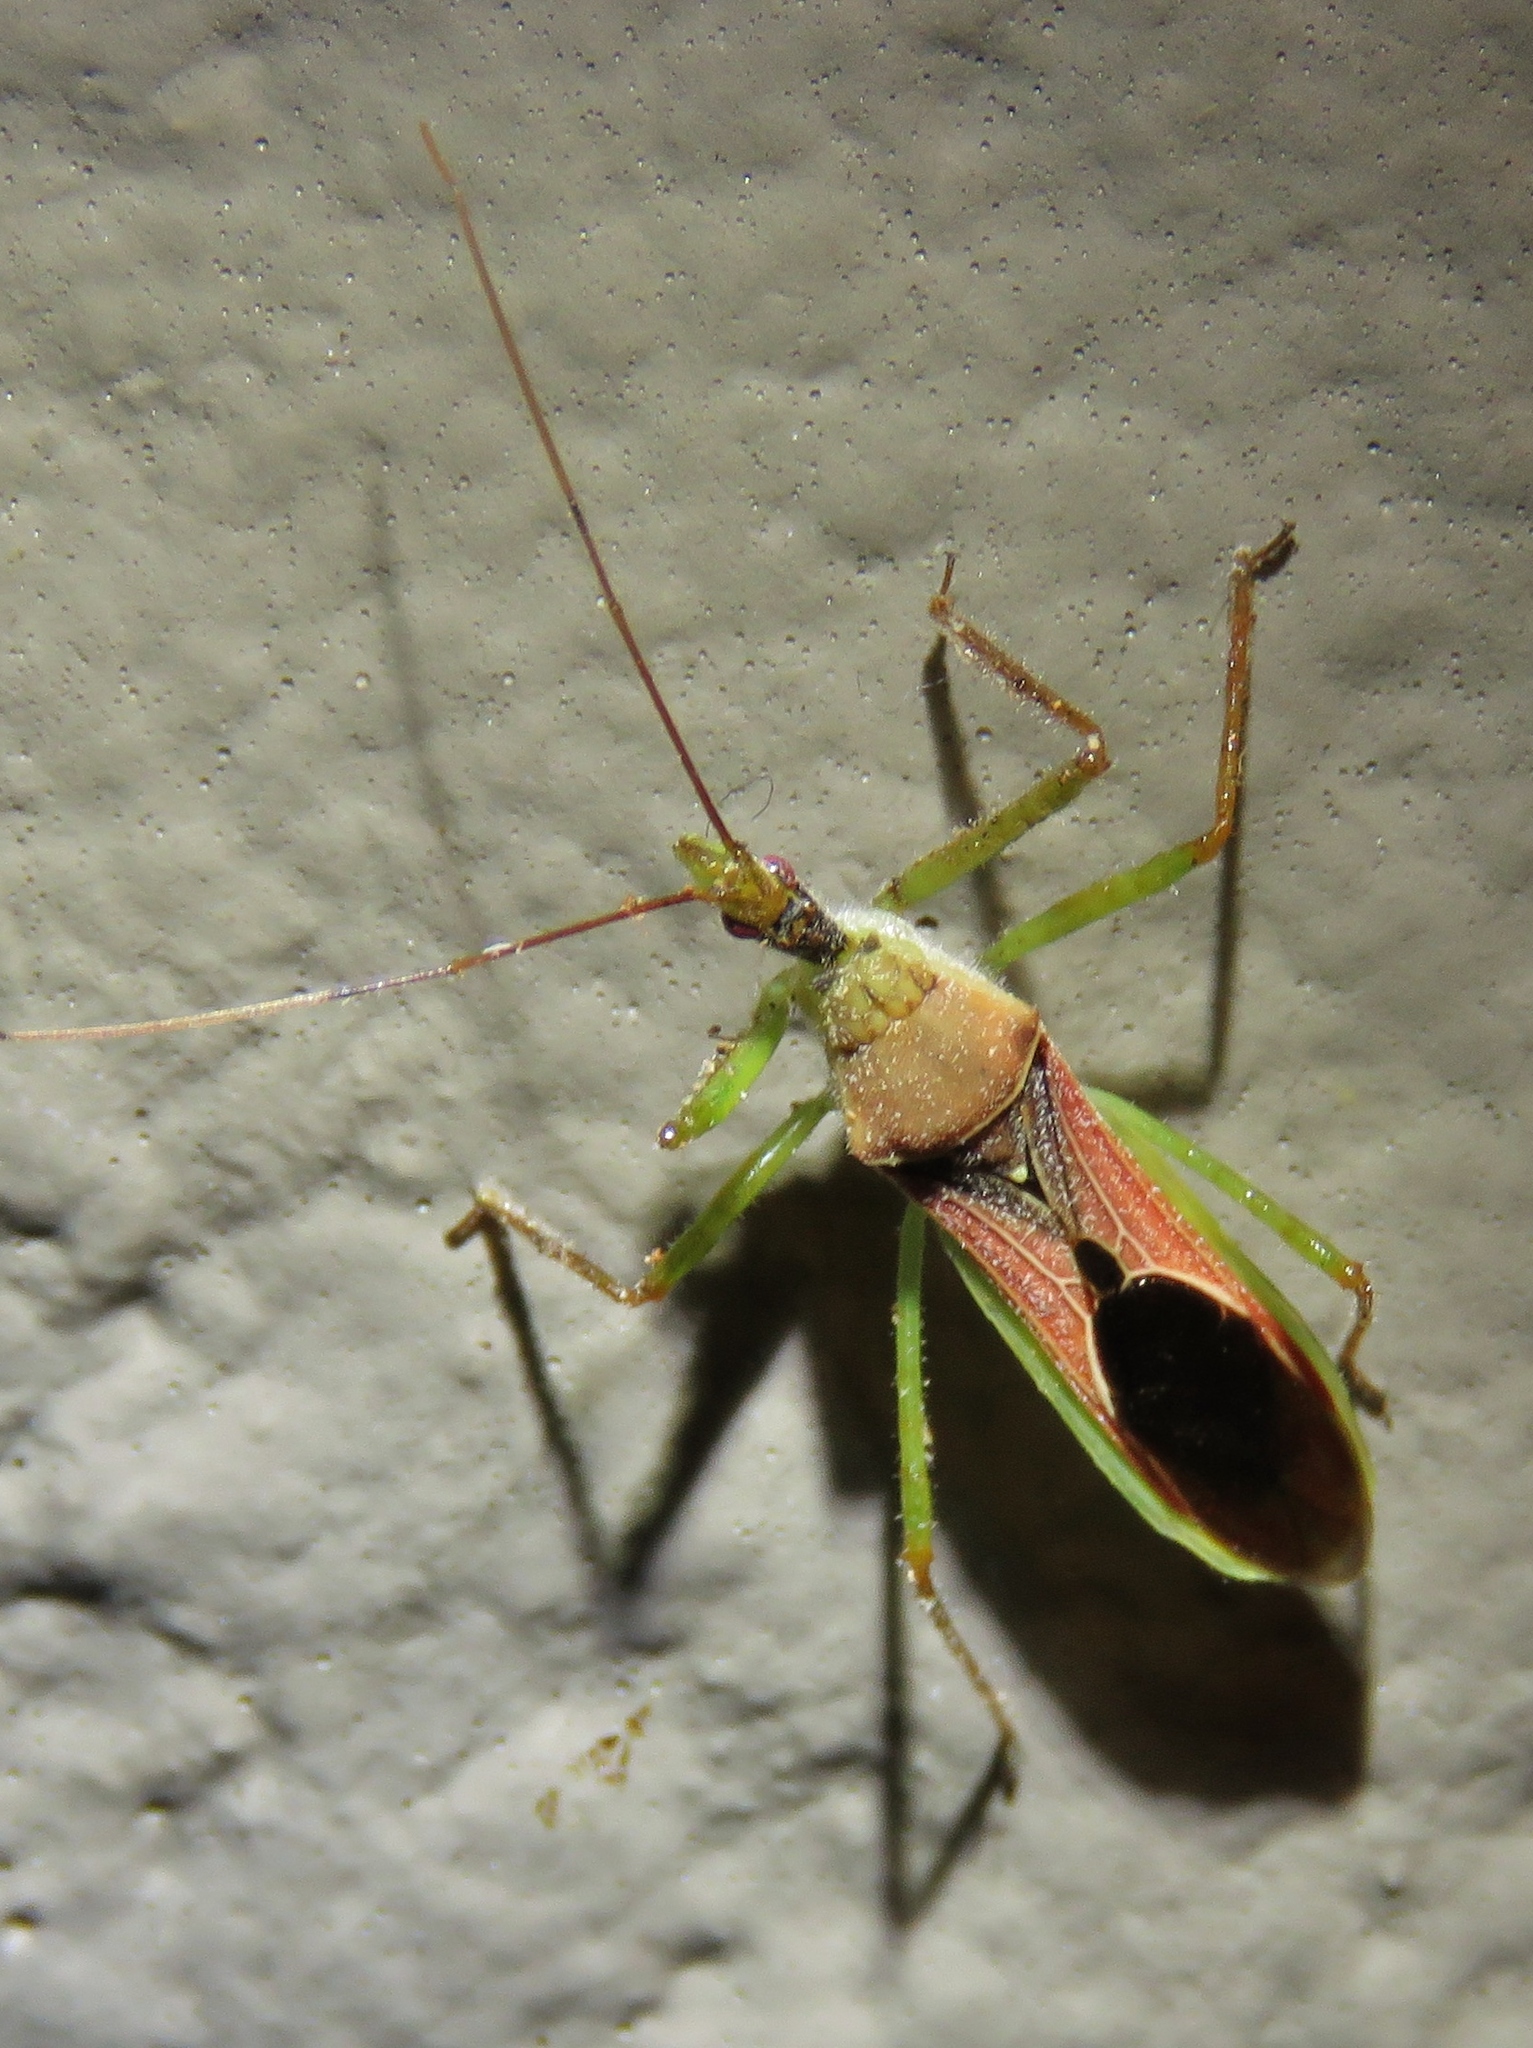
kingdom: Animalia
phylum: Arthropoda
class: Insecta
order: Hemiptera
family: Reduviidae
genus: Zelus
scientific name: Zelus renardii
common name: Assassin bug
